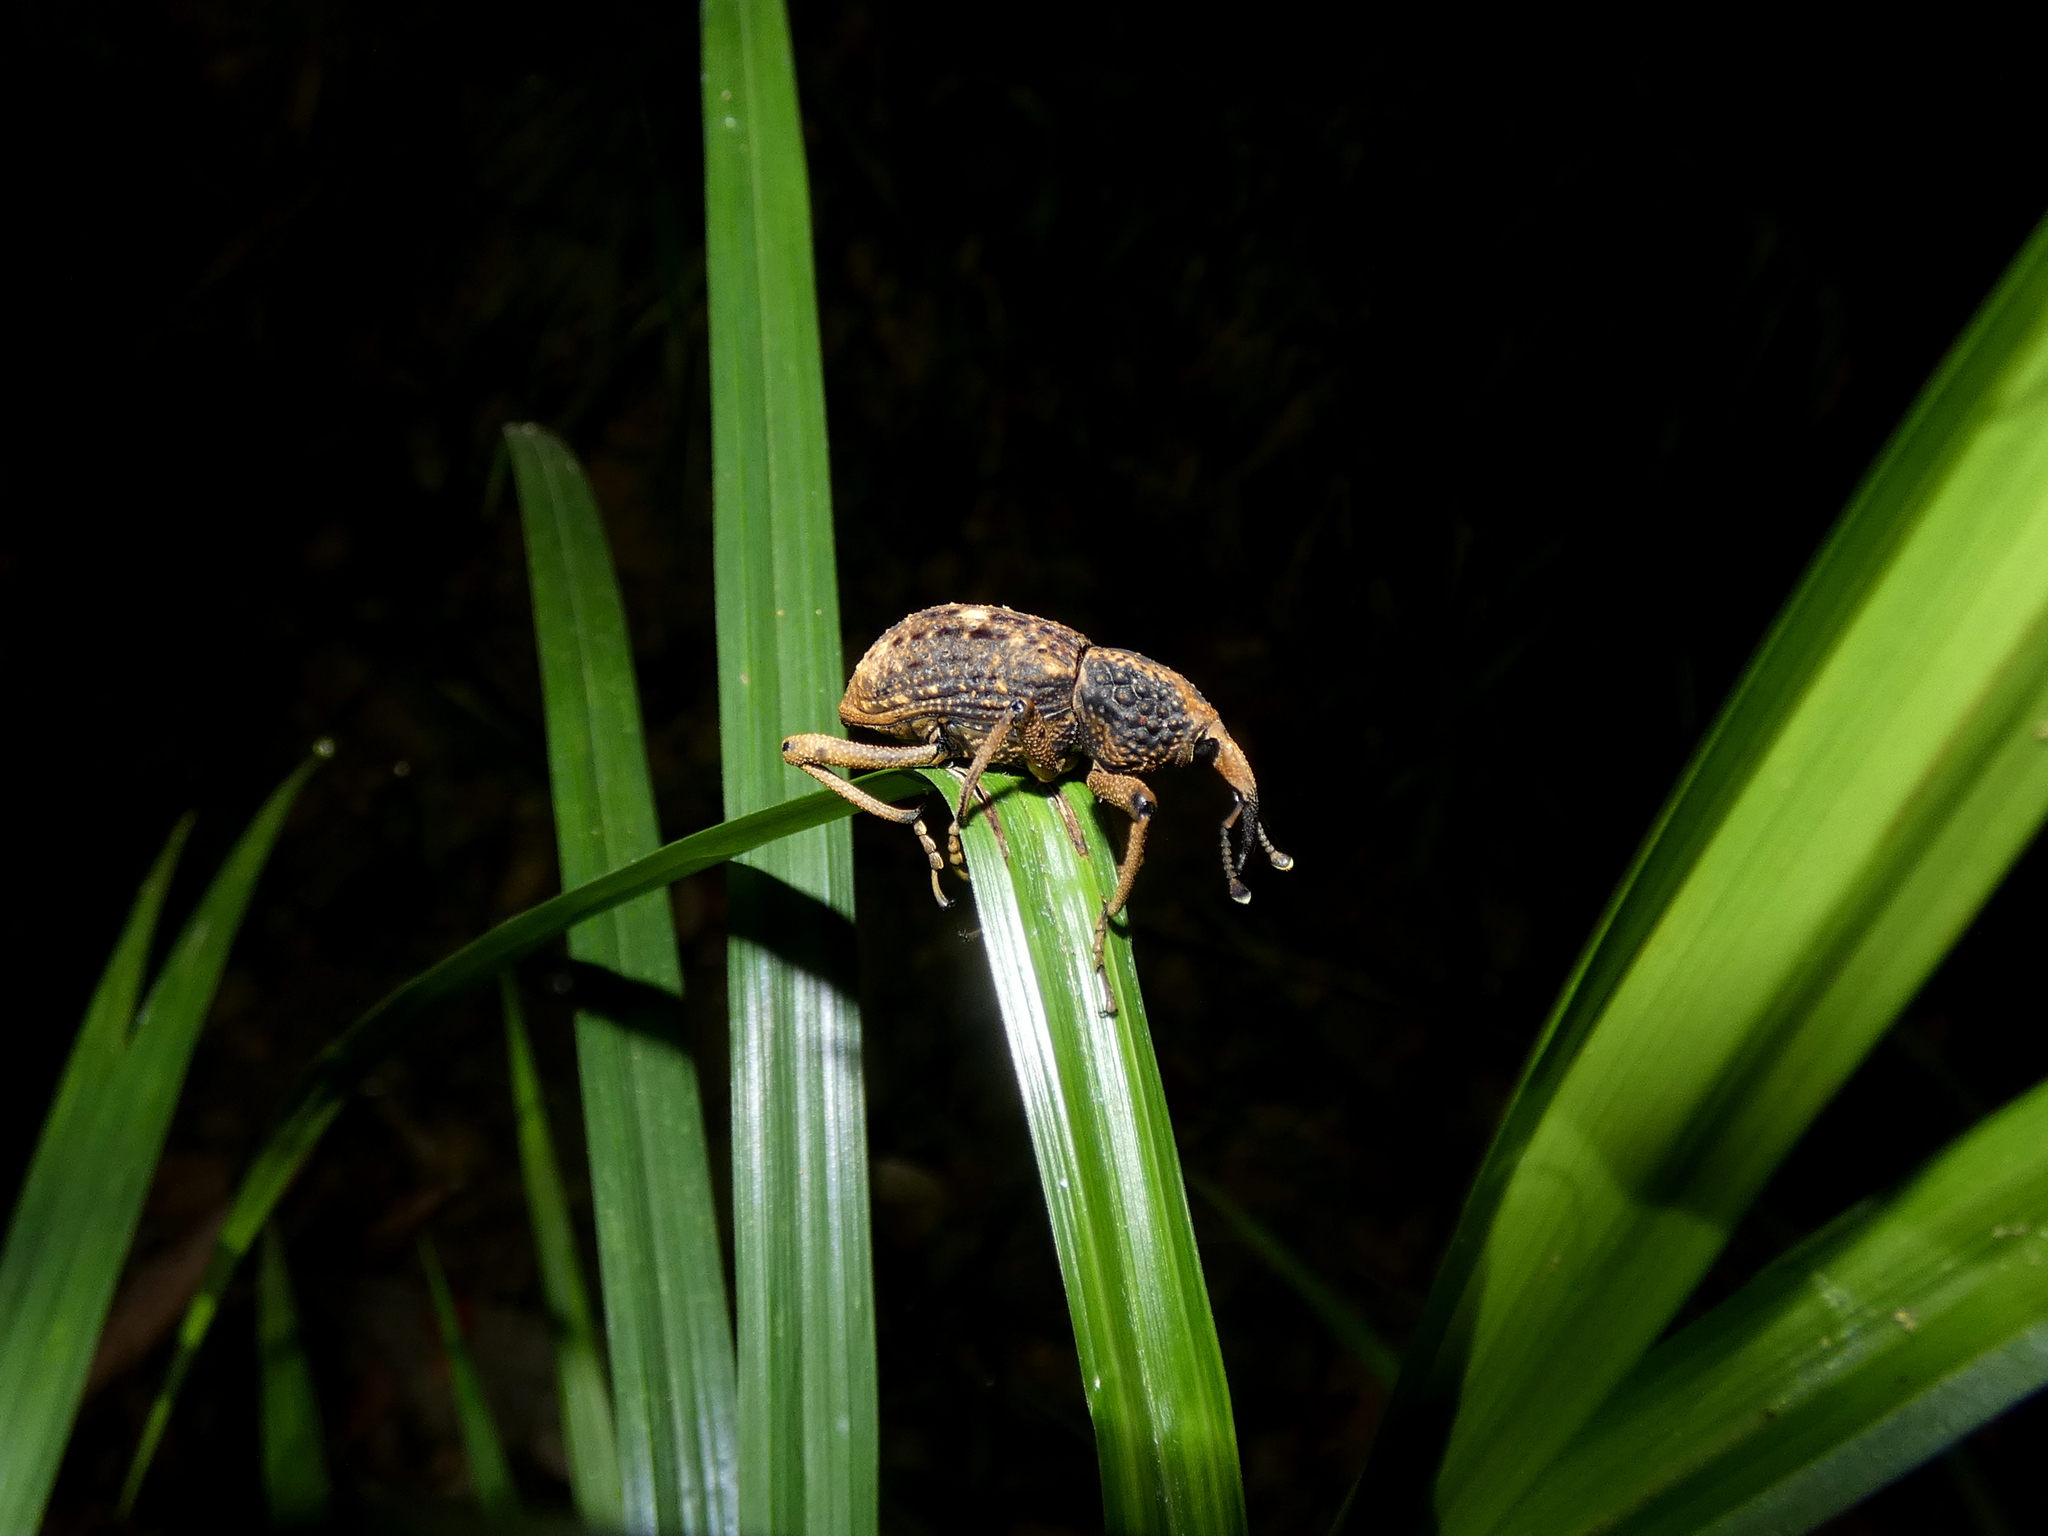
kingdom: Animalia
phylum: Arthropoda
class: Insecta
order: Coleoptera
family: Dryophthoridae
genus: Sipalinus
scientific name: Sipalinus gigas
